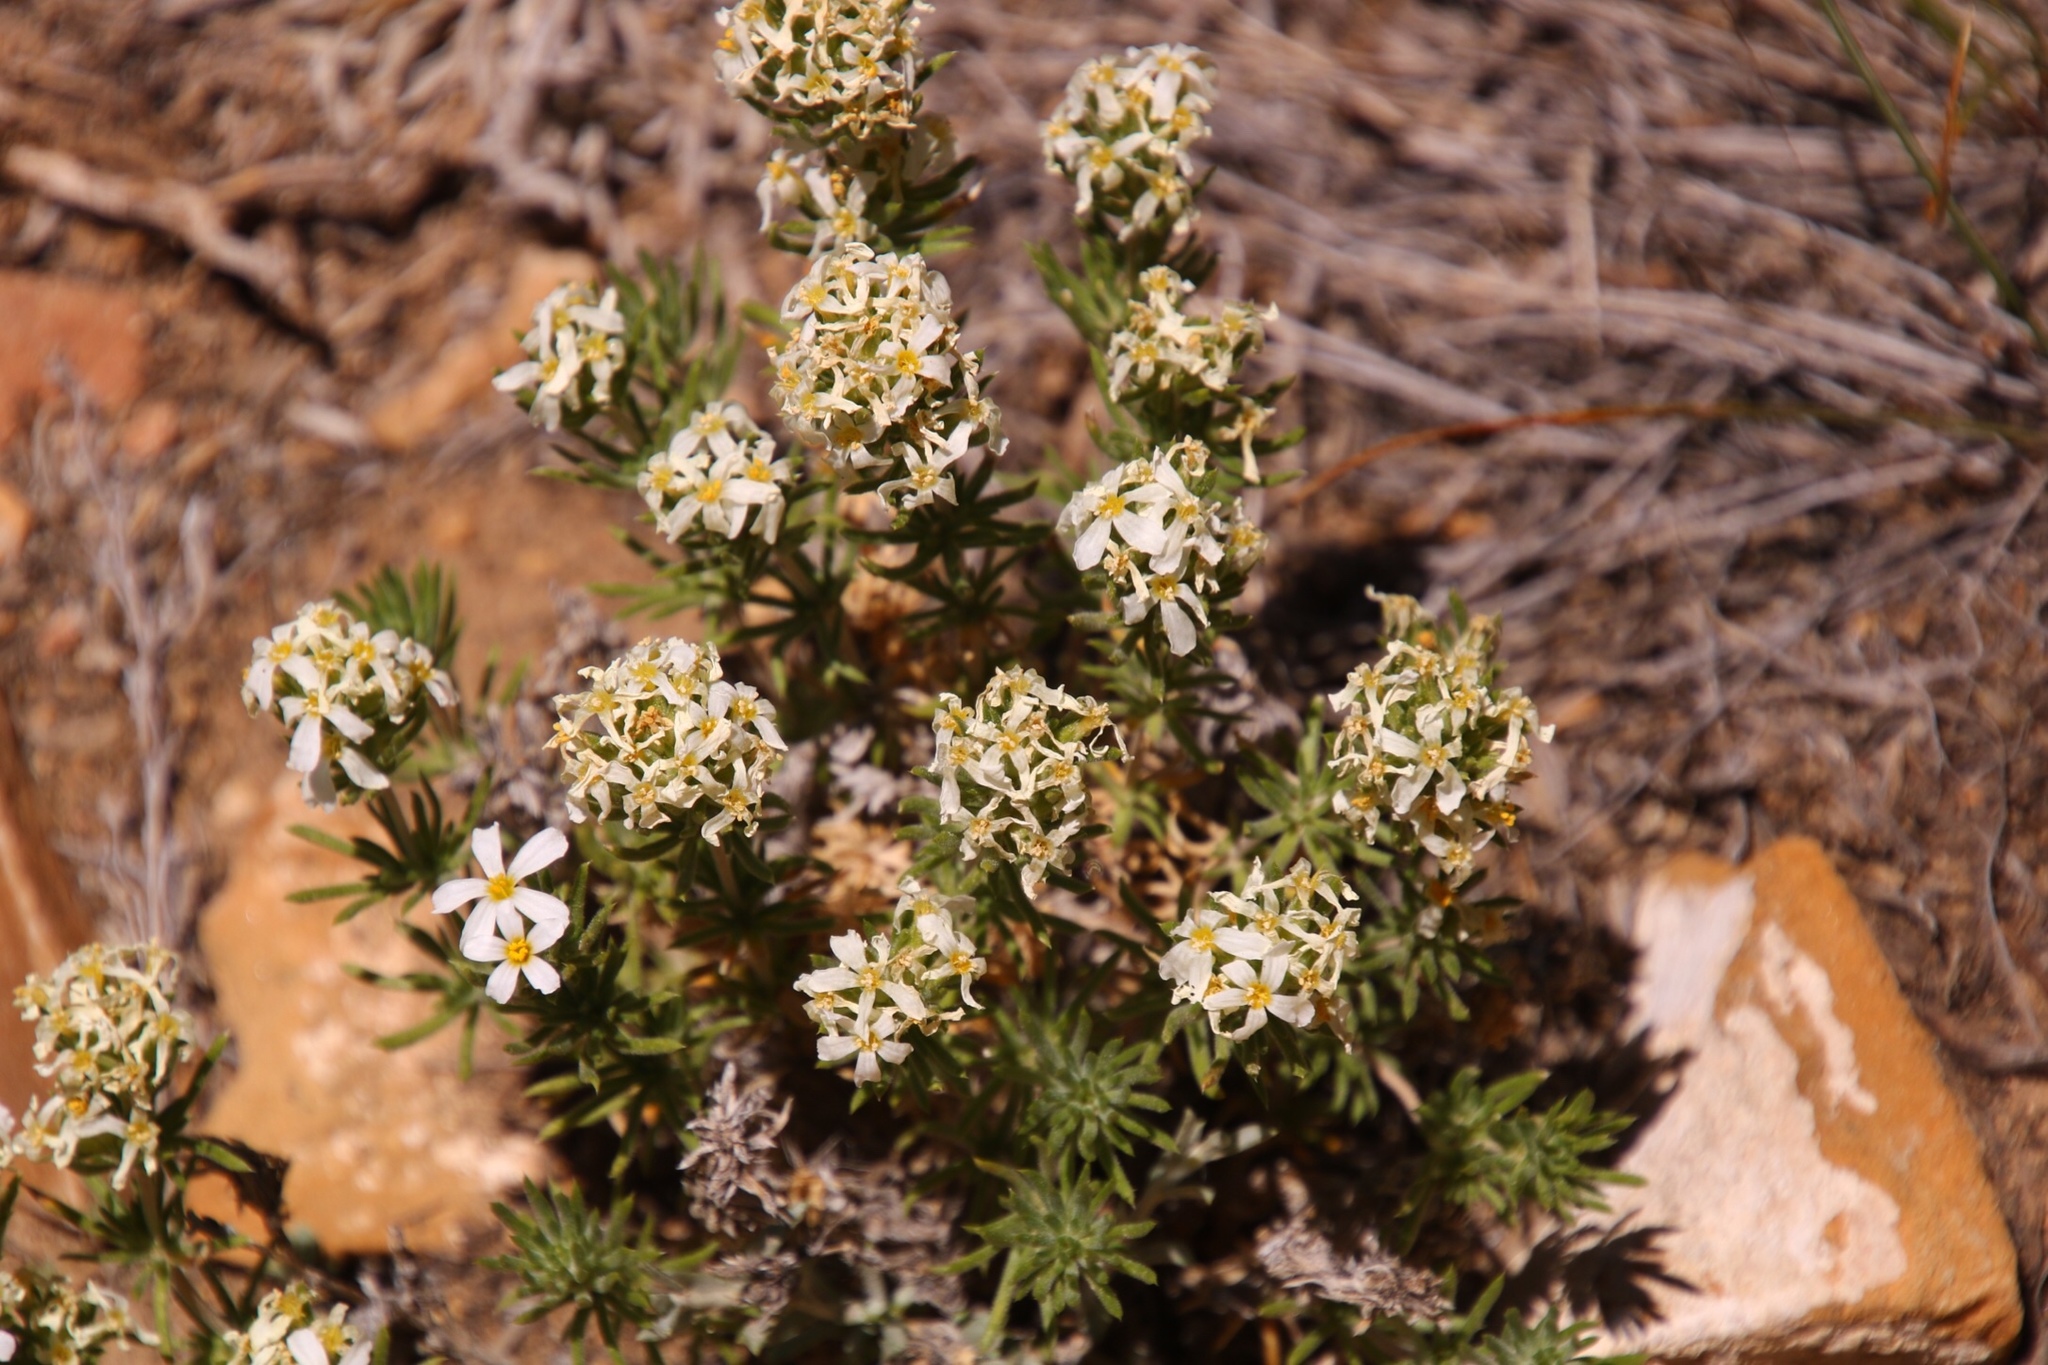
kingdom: Plantae
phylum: Tracheophyta
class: Magnoliopsida
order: Ericales
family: Polemoniaceae
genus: Leptosiphon
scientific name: Leptosiphon nuttallii
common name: Nuttall's linanthus
